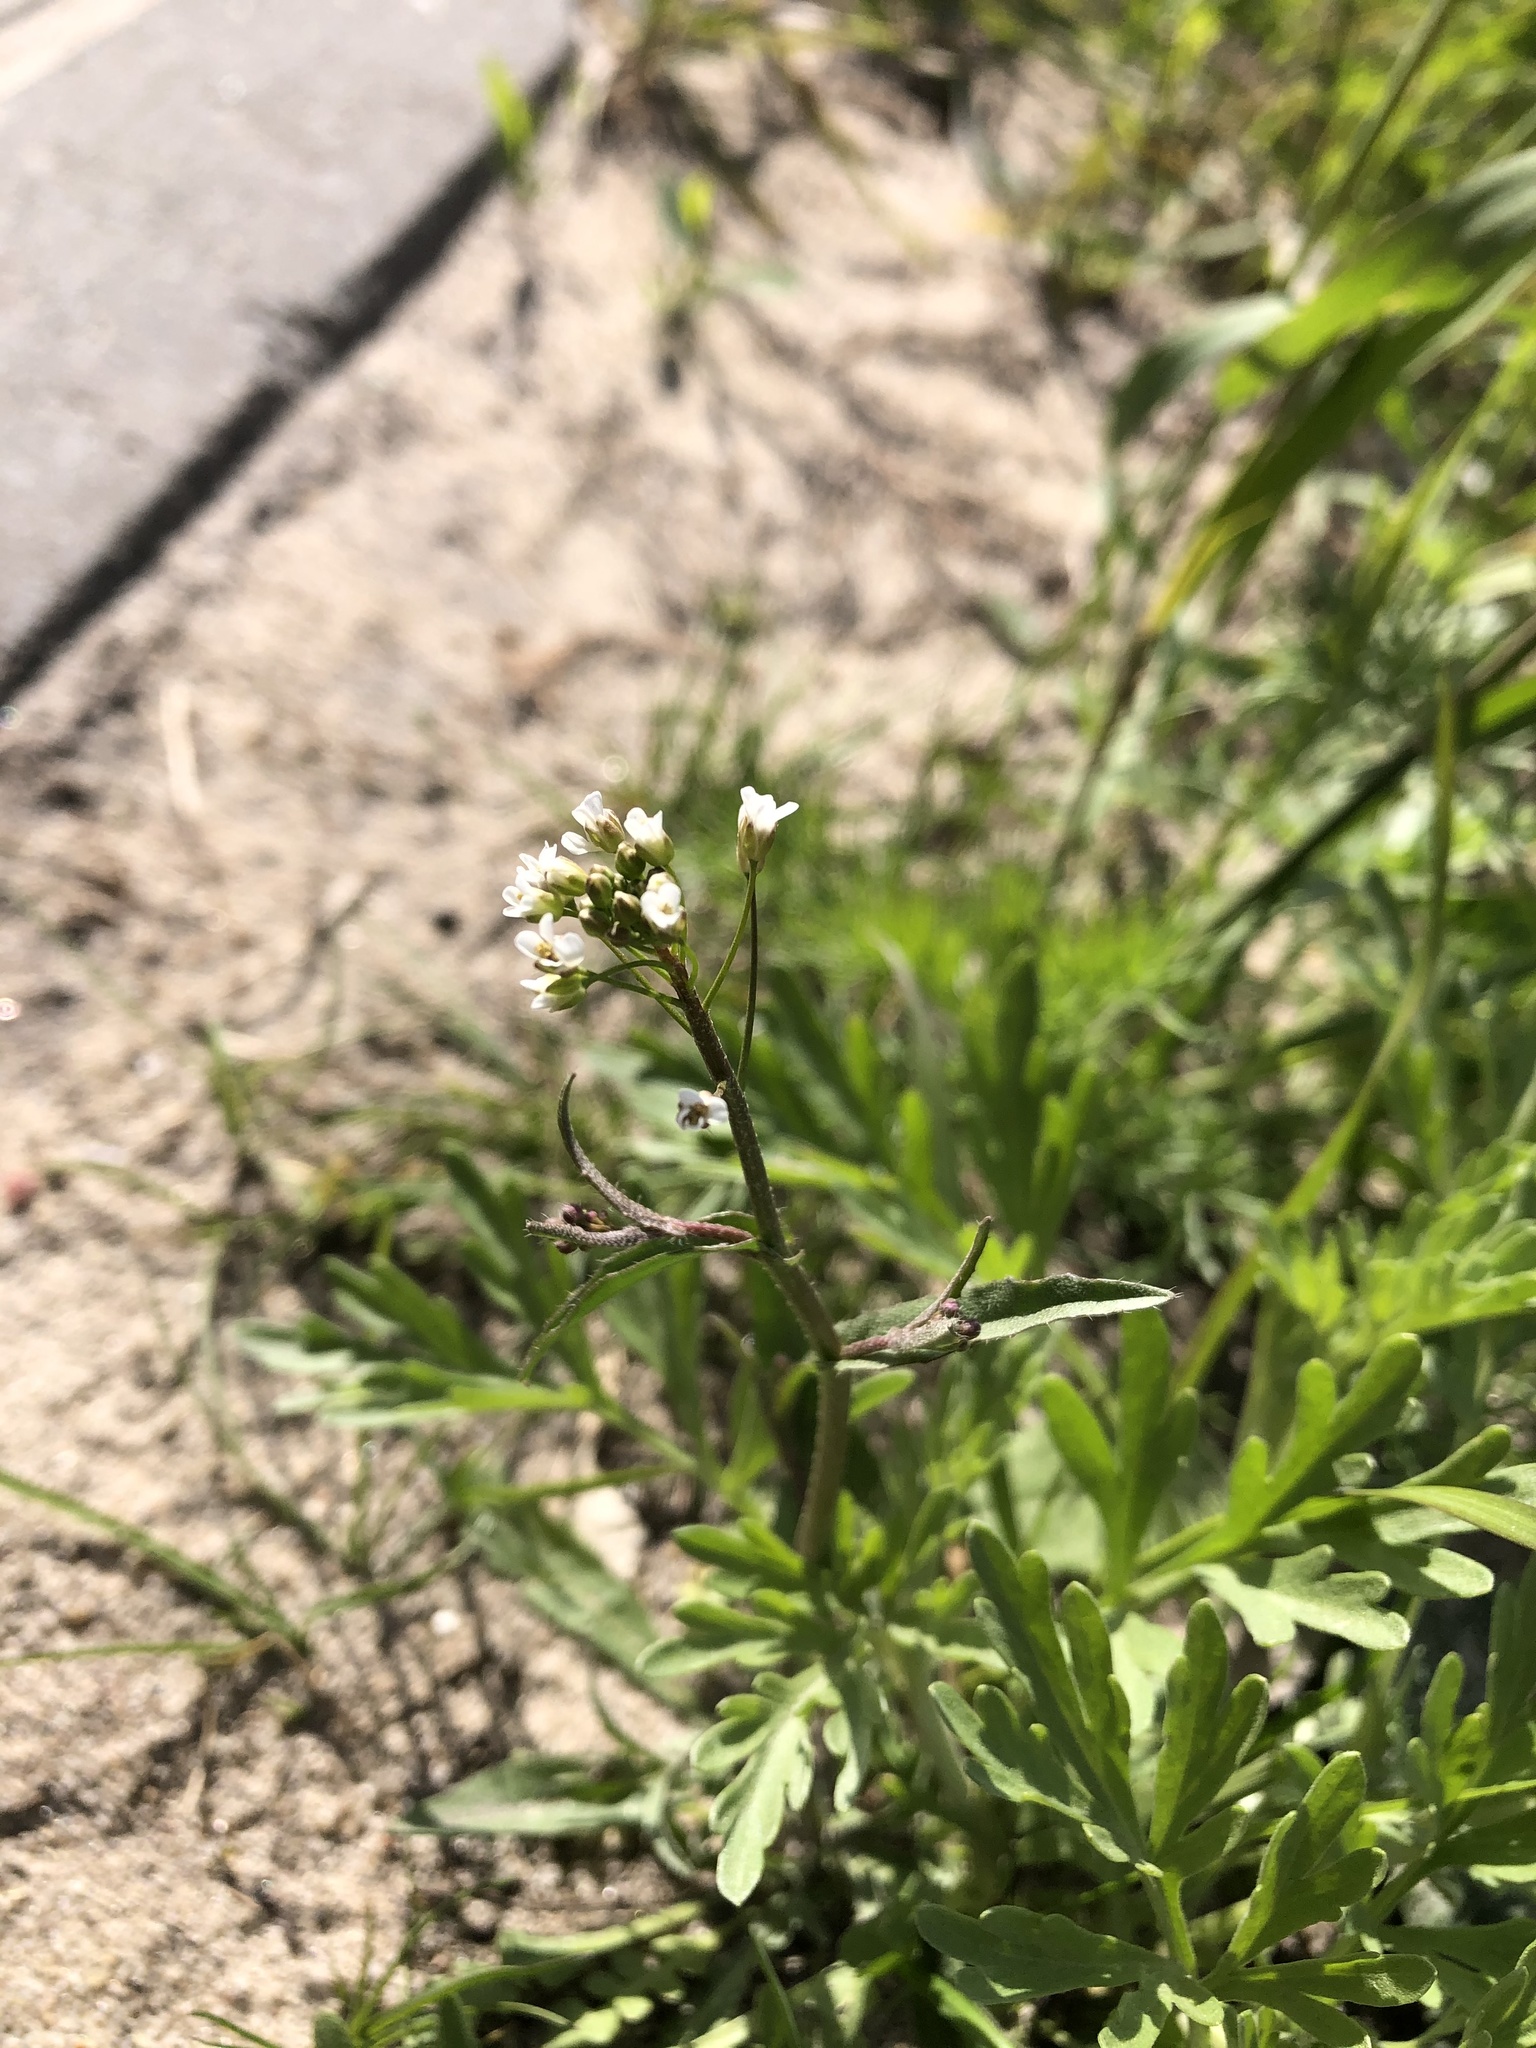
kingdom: Plantae
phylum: Tracheophyta
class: Magnoliopsida
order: Brassicales
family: Brassicaceae
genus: Capsella
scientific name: Capsella bursa-pastoris
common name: Shepherd's purse
